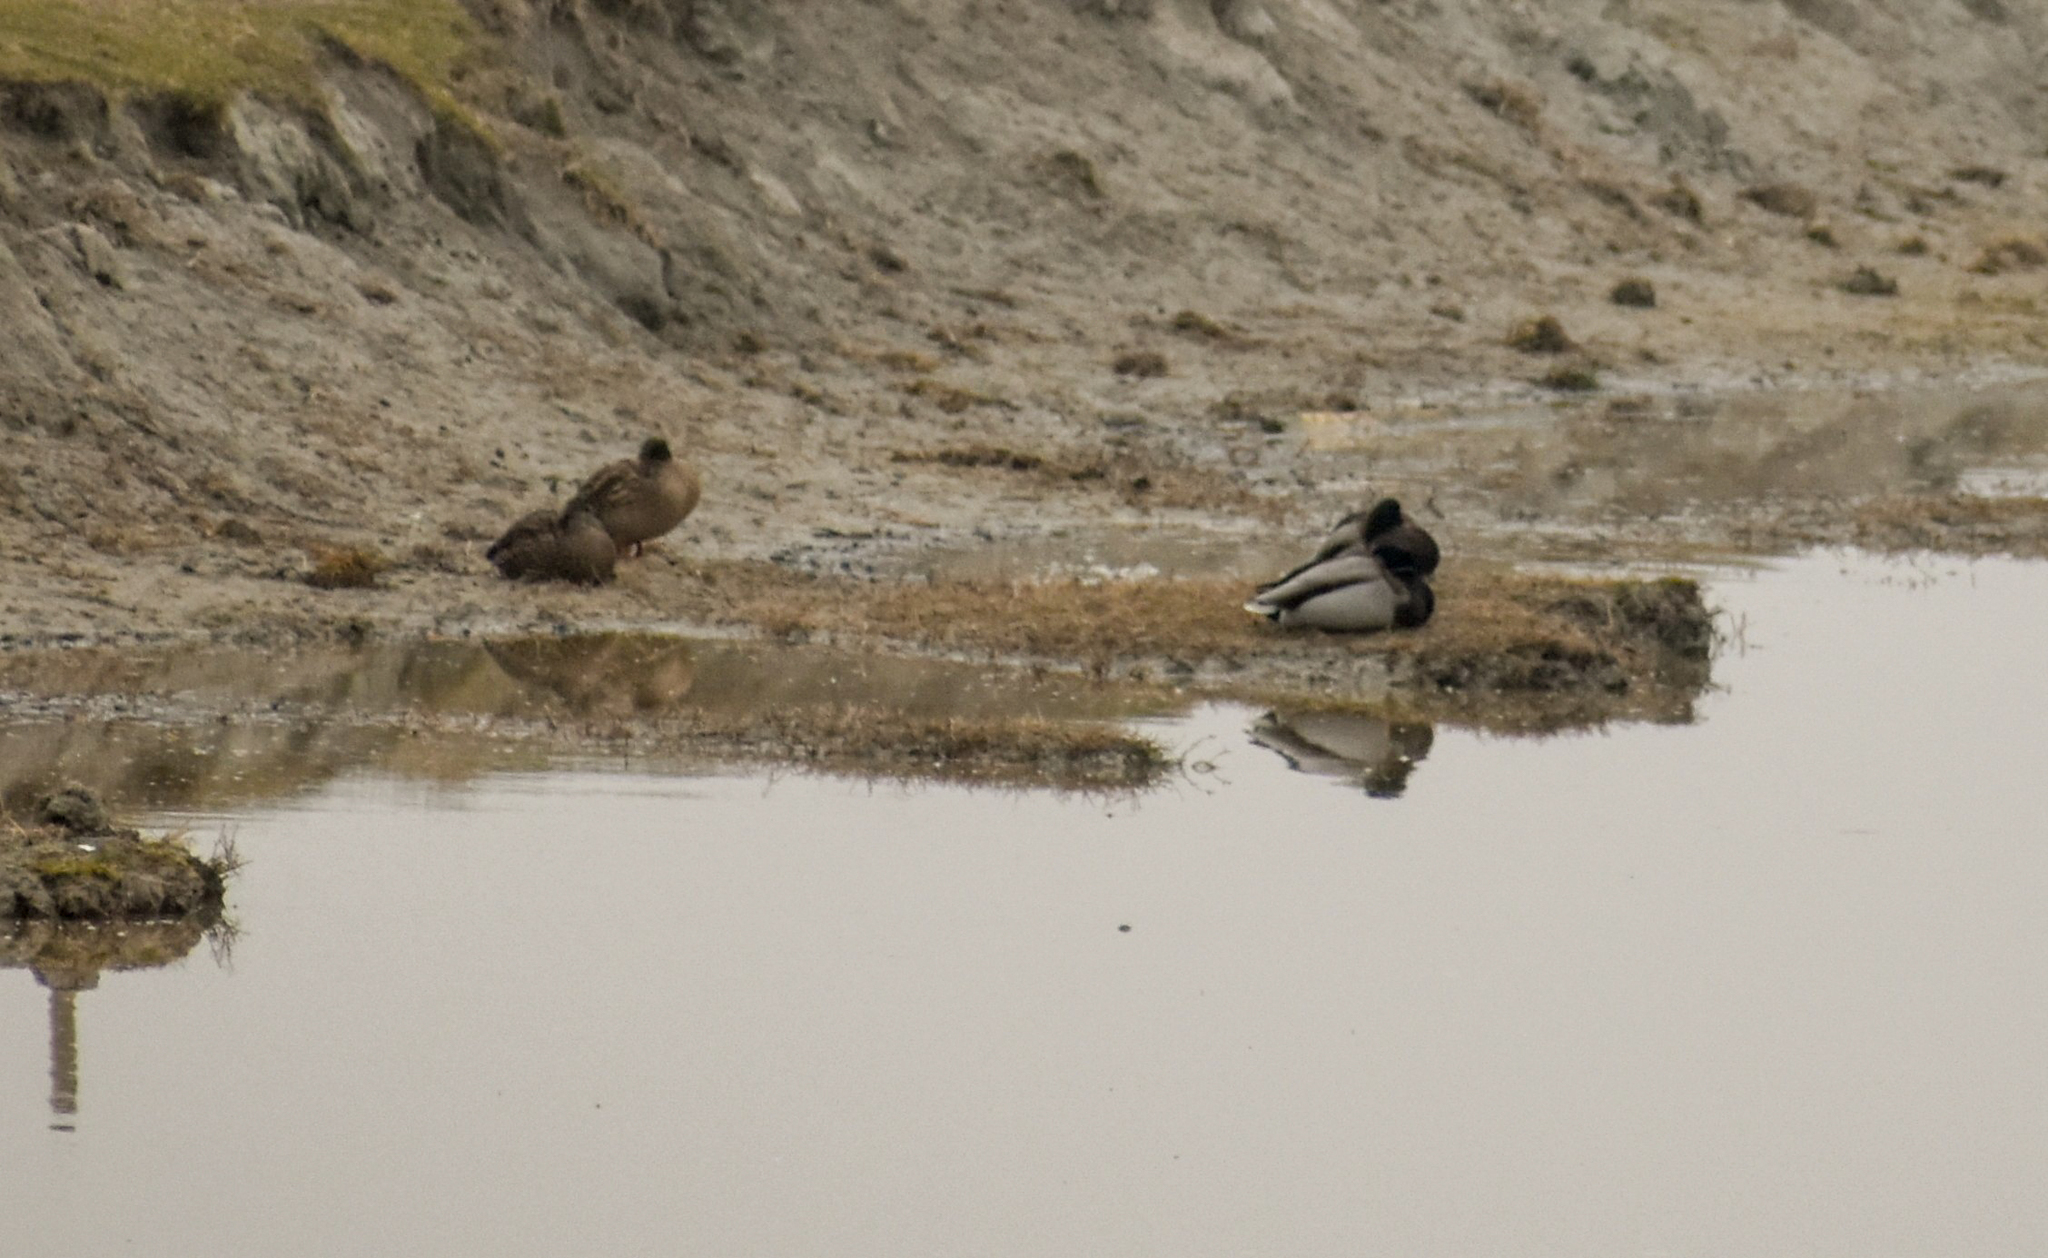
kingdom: Animalia
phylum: Chordata
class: Aves
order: Anseriformes
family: Anatidae
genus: Anas
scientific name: Anas platyrhynchos
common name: Mallard
